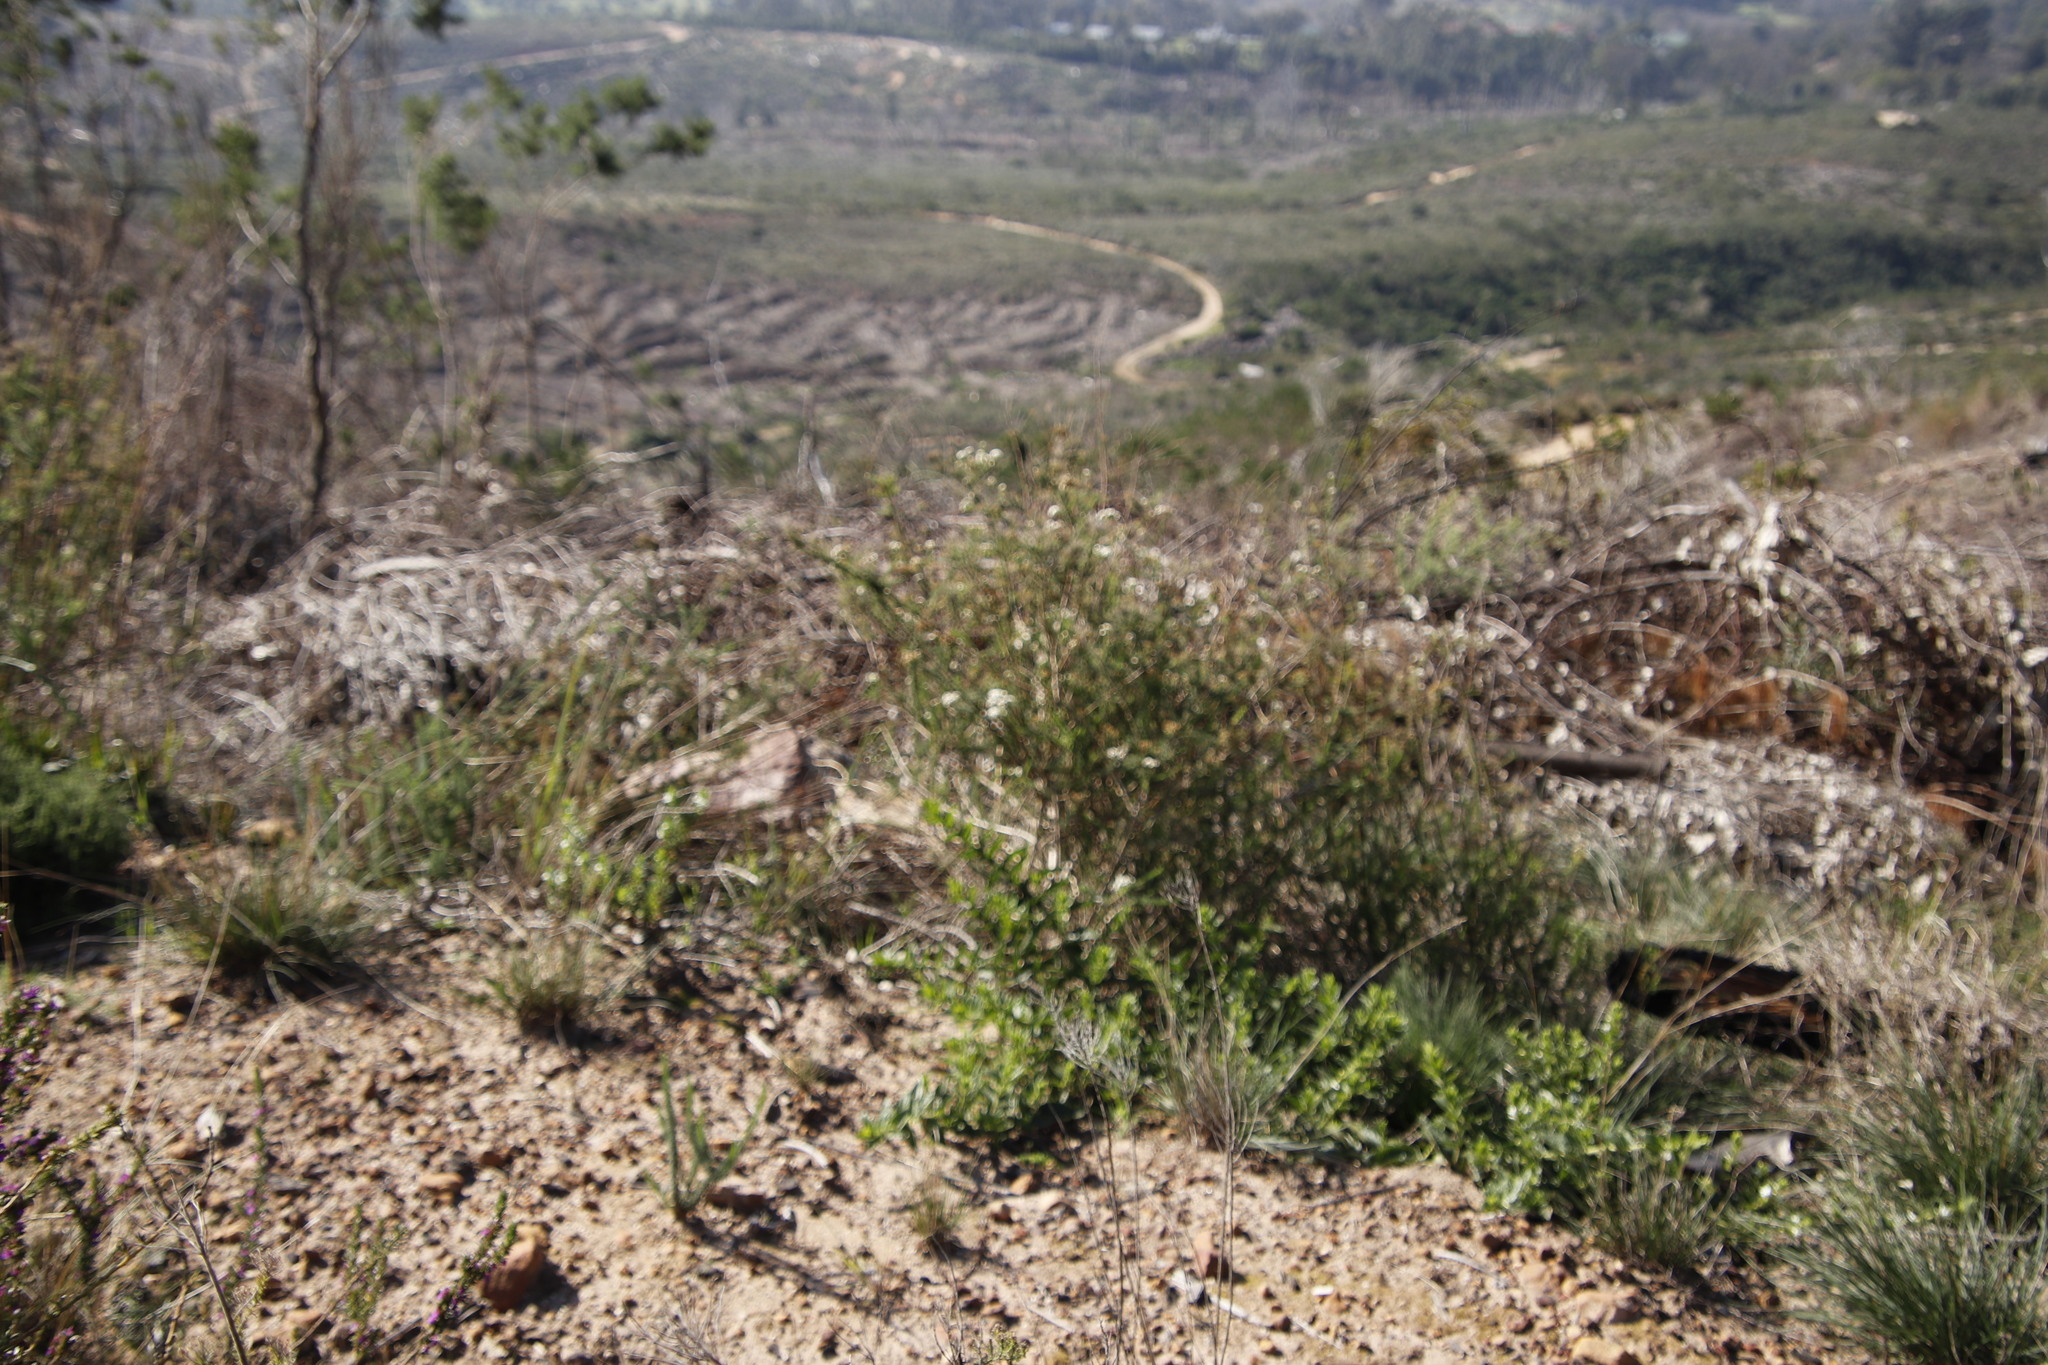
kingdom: Plantae
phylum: Tracheophyta
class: Magnoliopsida
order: Lamiales
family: Scrophulariaceae
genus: Selago
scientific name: Selago corymbosa
